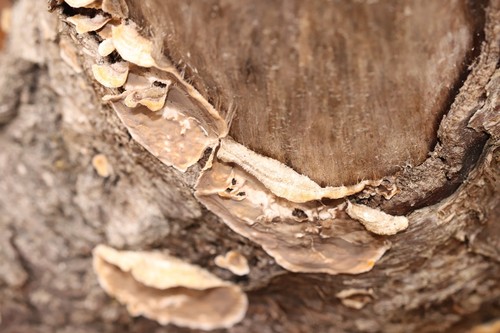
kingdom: Fungi
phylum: Basidiomycota
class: Agaricomycetes
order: Russulales
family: Stereaceae
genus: Stereum
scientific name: Stereum hirsutum
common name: Hairy curtain crust
